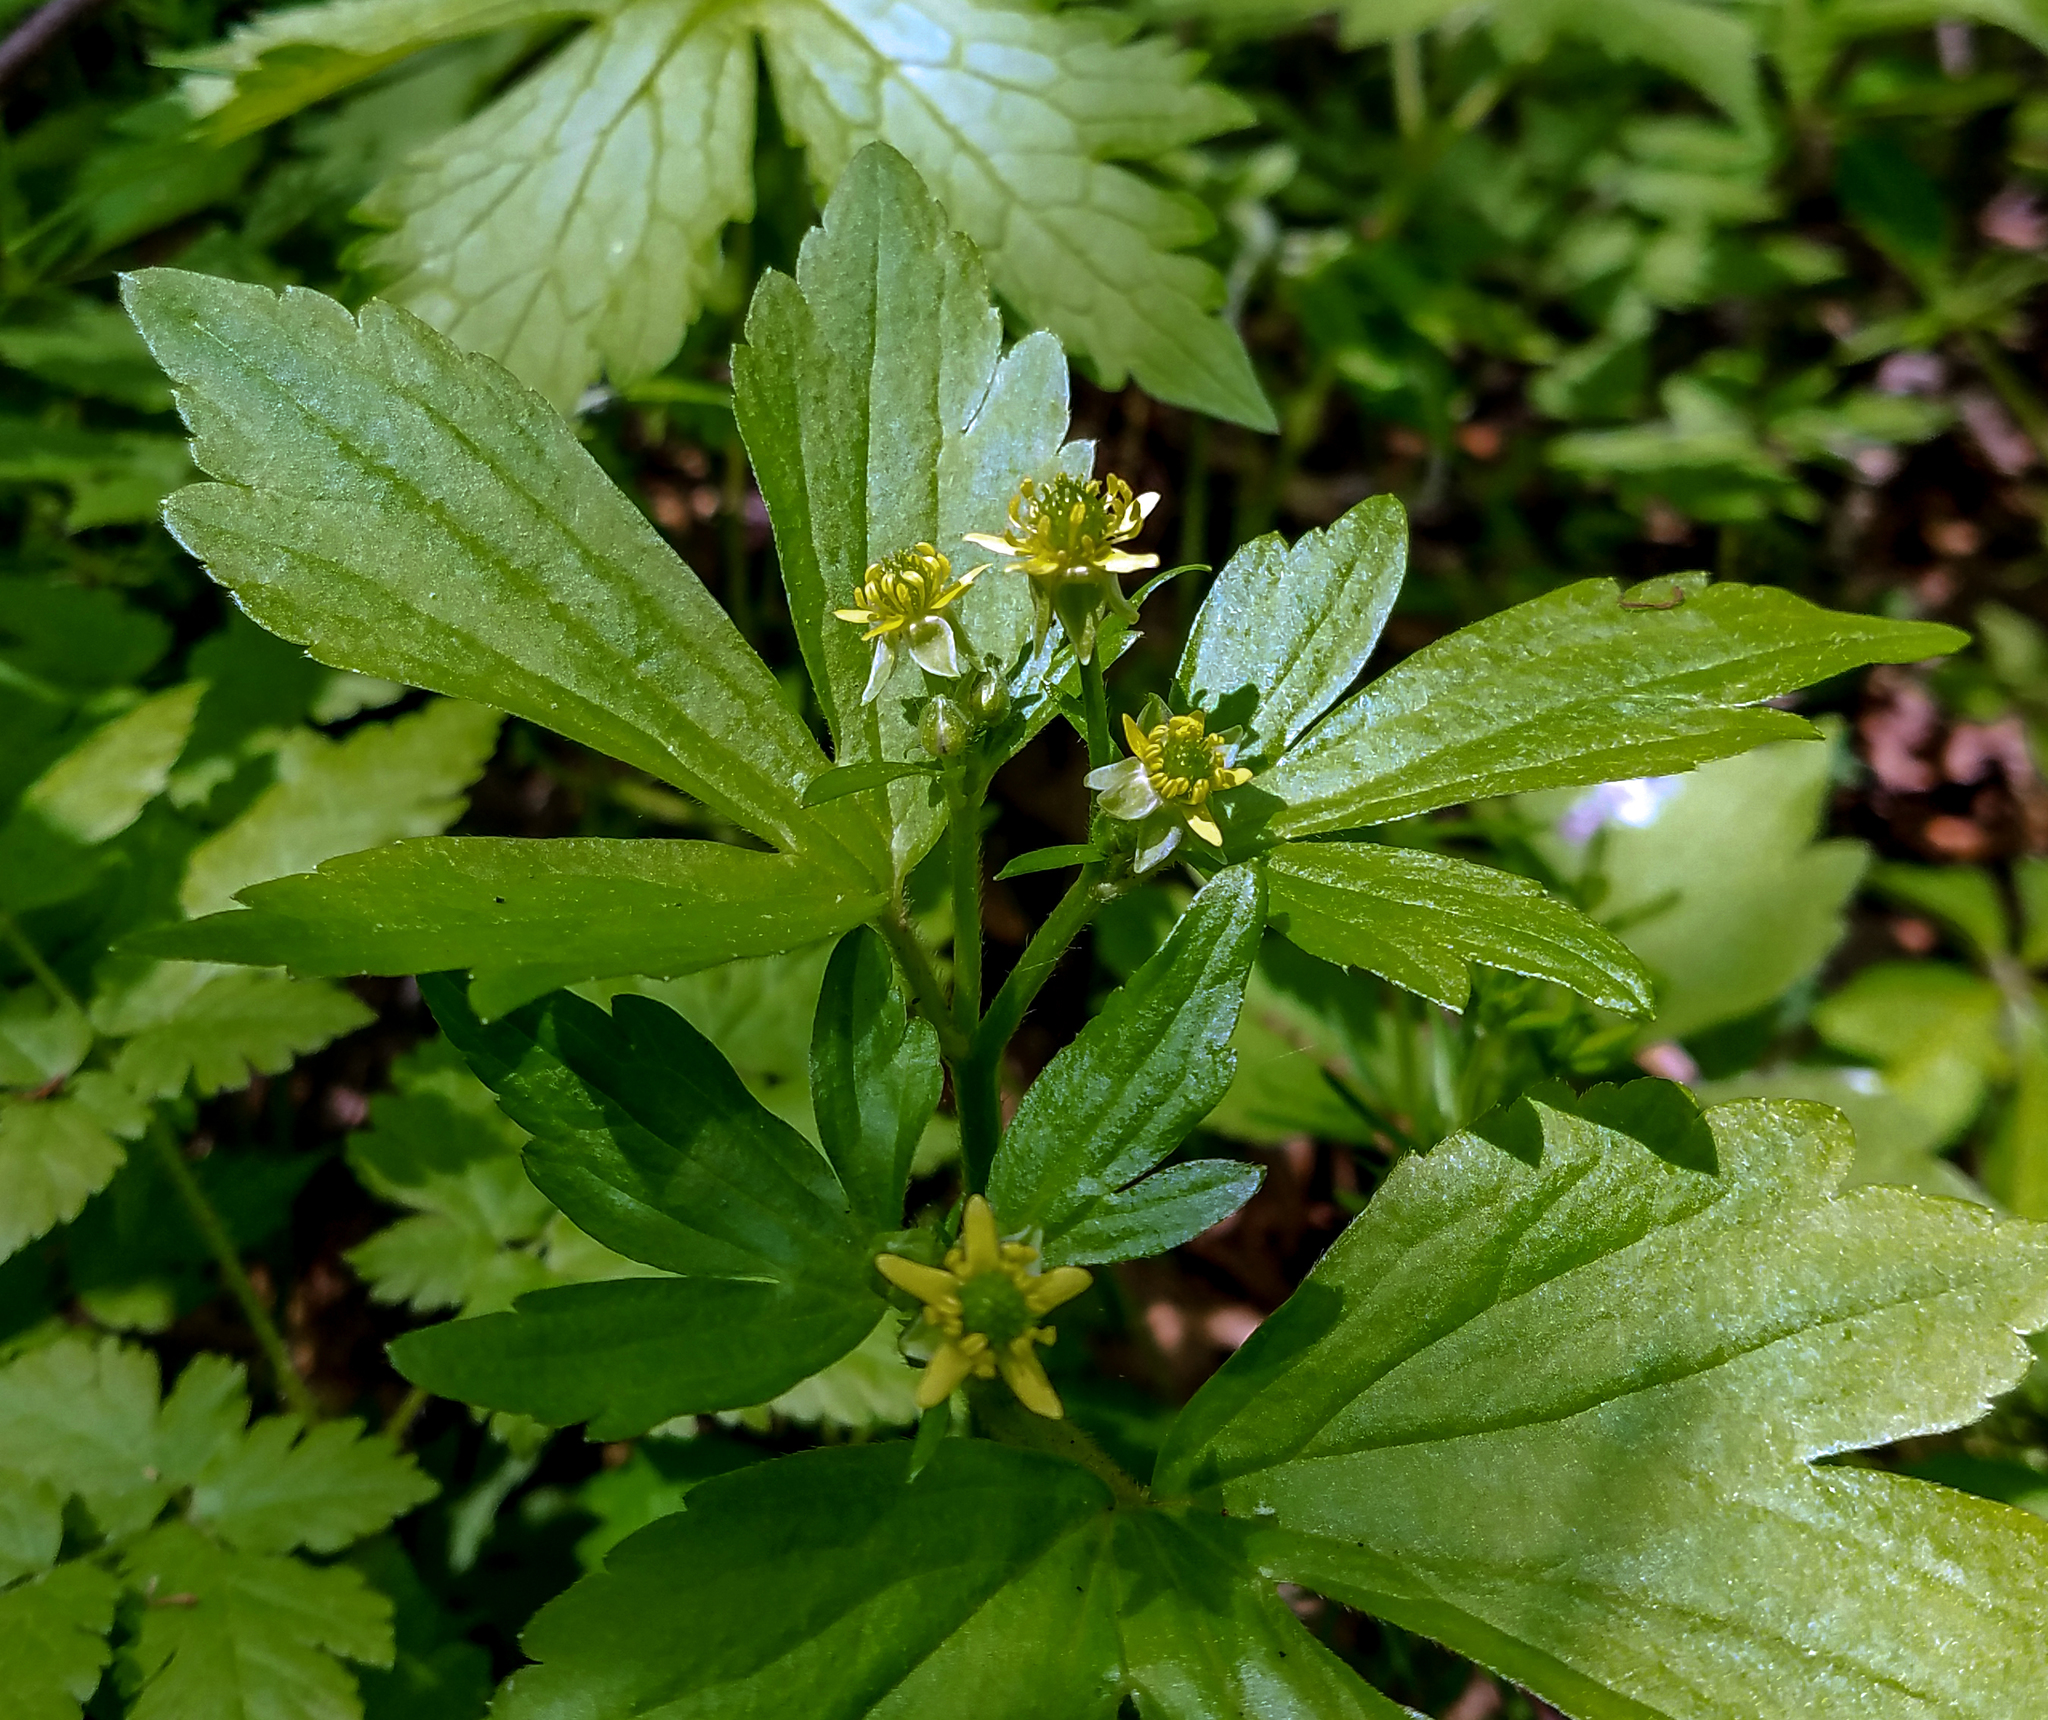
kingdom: Plantae
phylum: Tracheophyta
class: Magnoliopsida
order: Ranunculales
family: Ranunculaceae
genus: Ranunculus
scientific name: Ranunculus recurvatus
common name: Blisterwort
